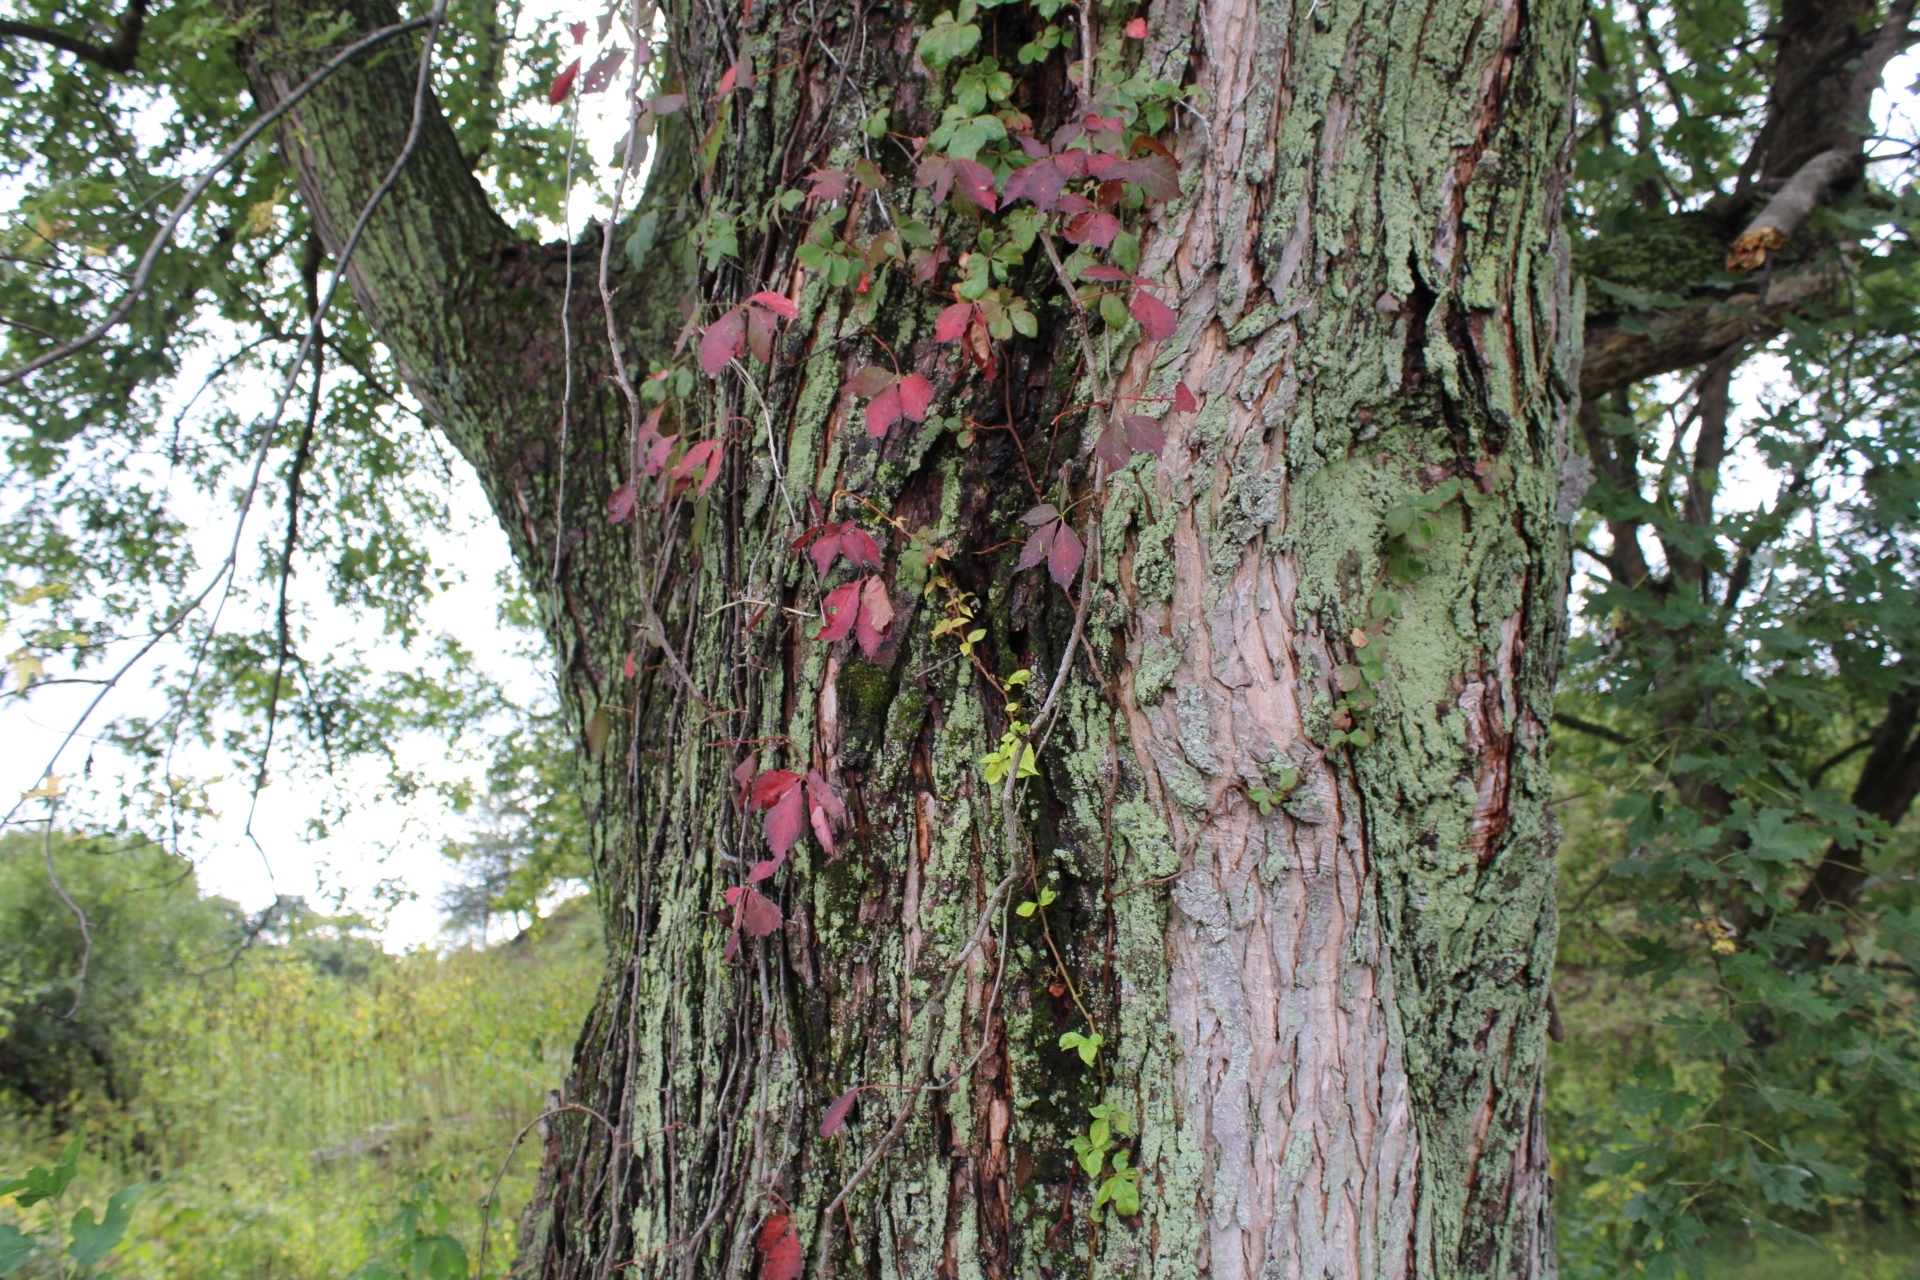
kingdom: Plantae
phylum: Tracheophyta
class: Magnoliopsida
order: Vitales
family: Vitaceae
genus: Parthenocissus
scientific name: Parthenocissus quinquefolia
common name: Virginia-creeper
